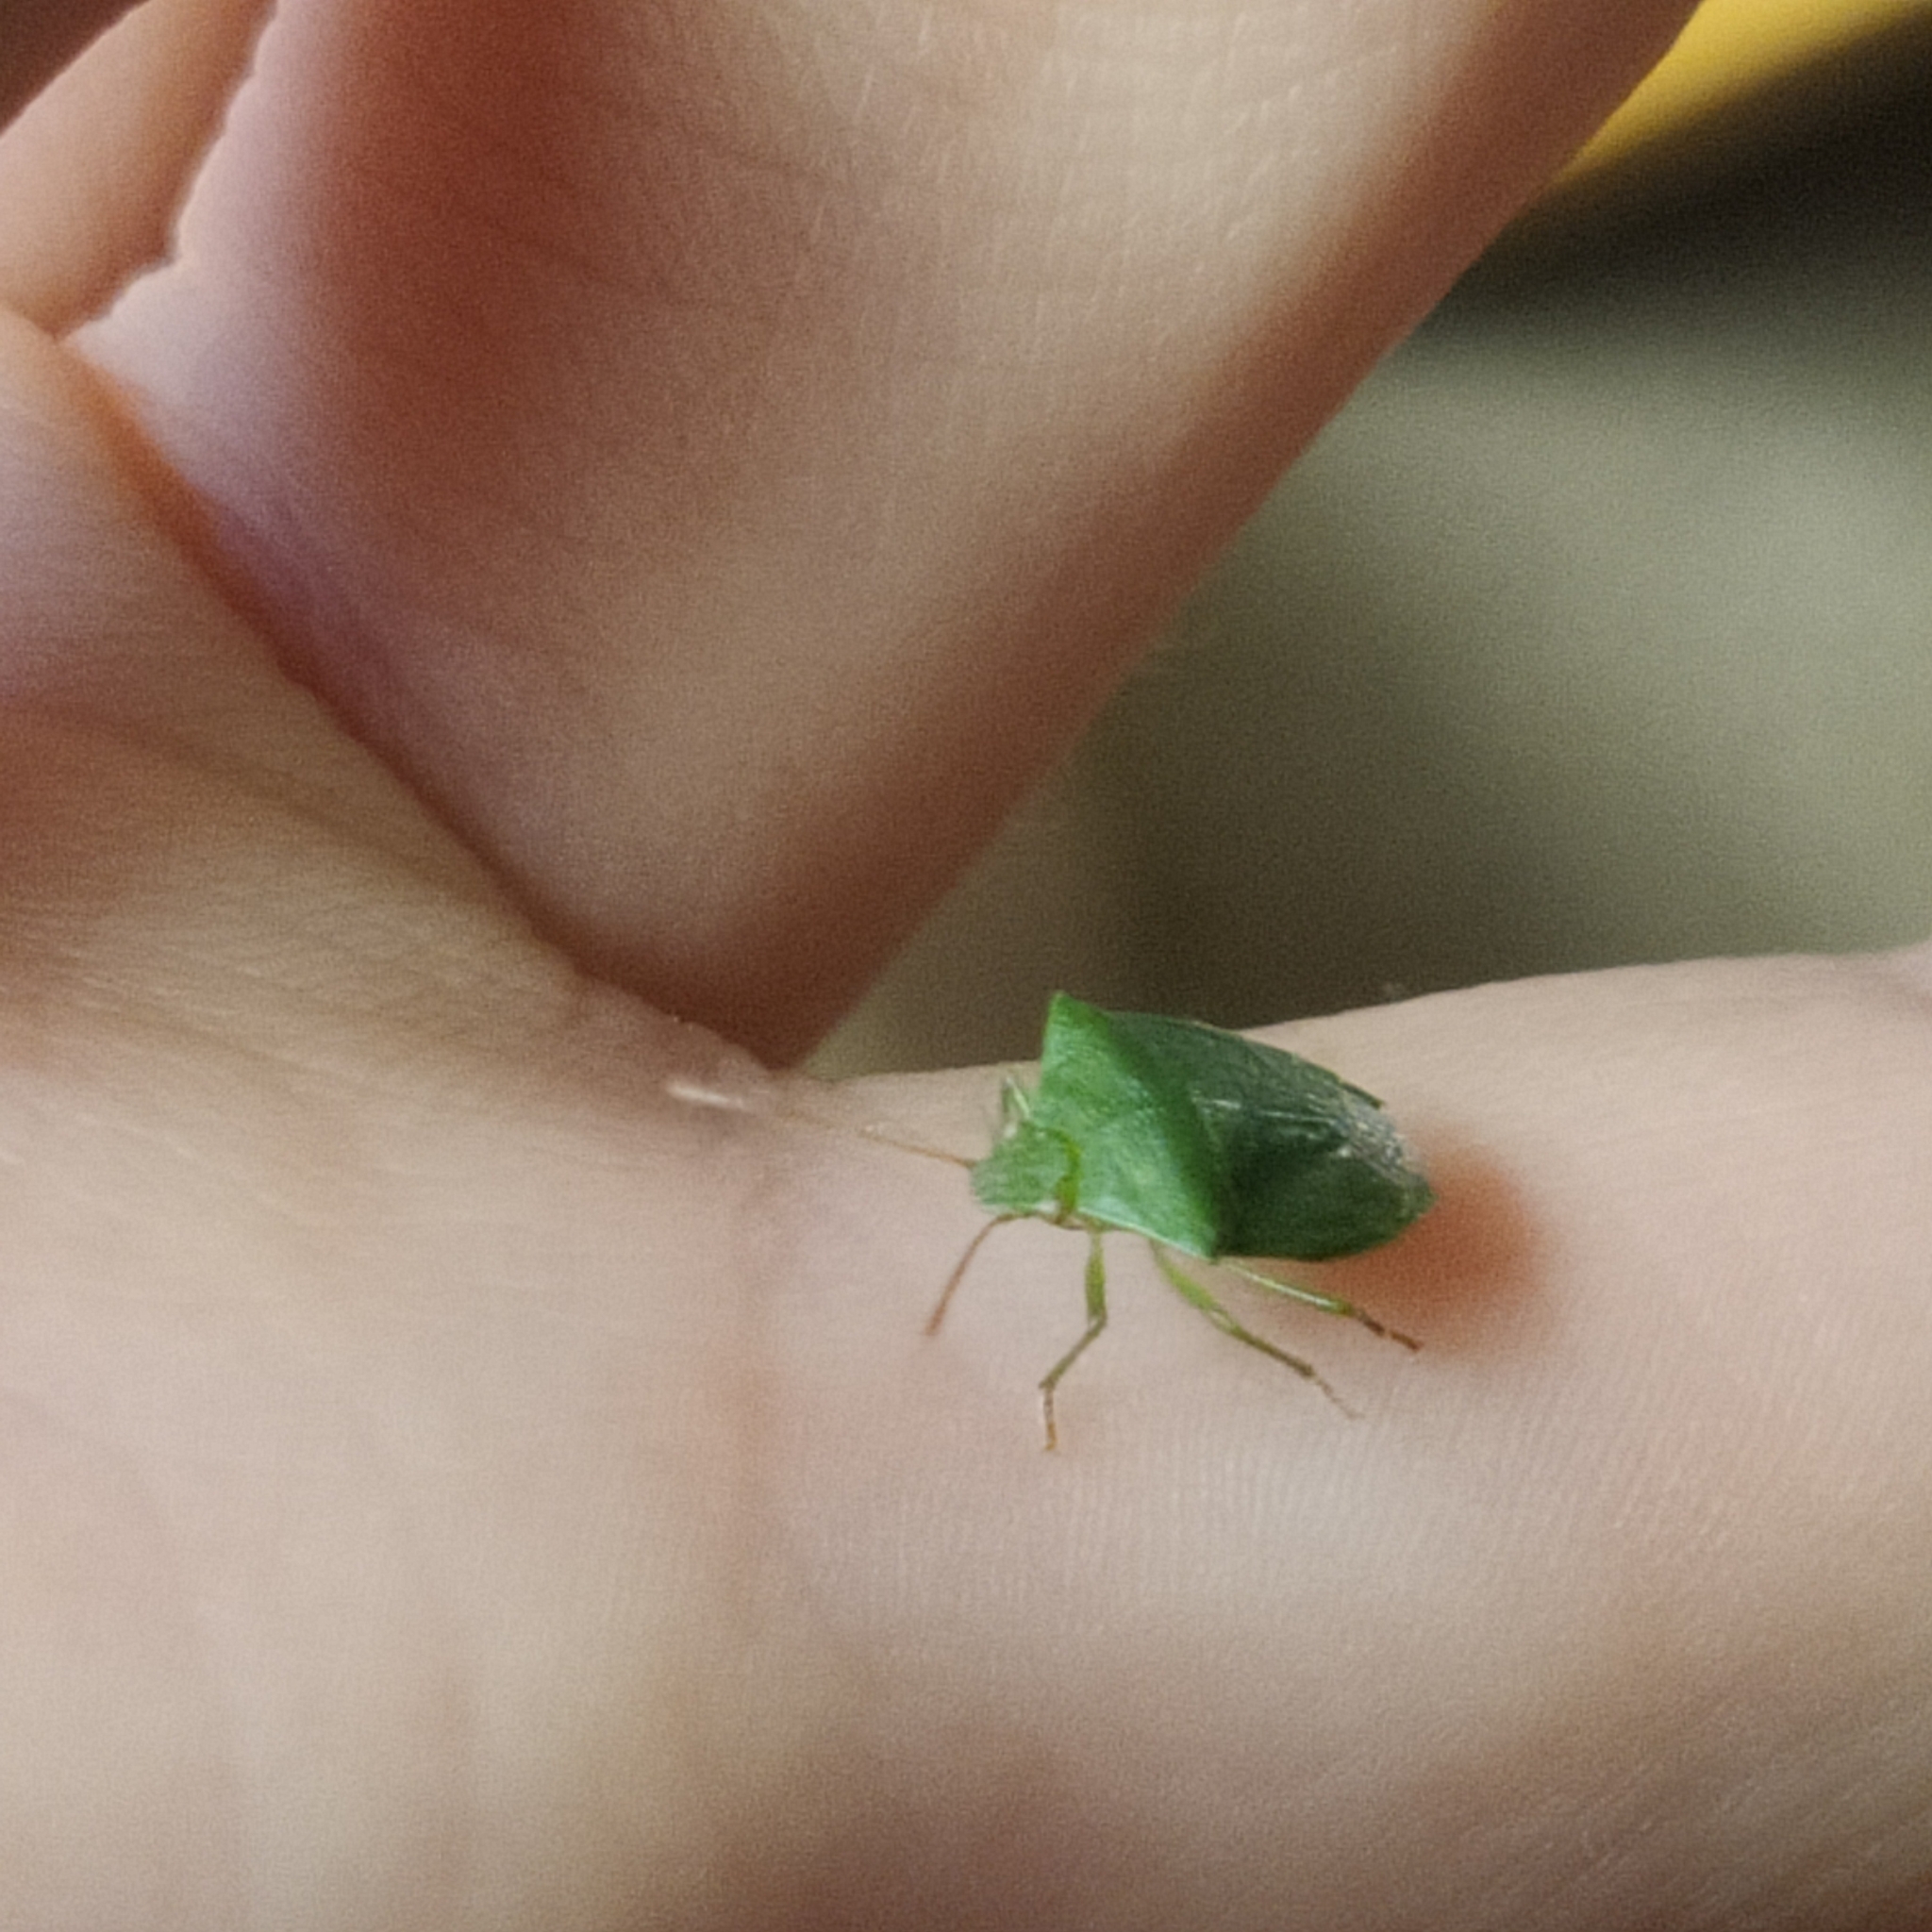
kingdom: Animalia
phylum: Arthropoda
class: Insecta
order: Hemiptera
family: Pentatomidae
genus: Cuspicona
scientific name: Cuspicona simplex
